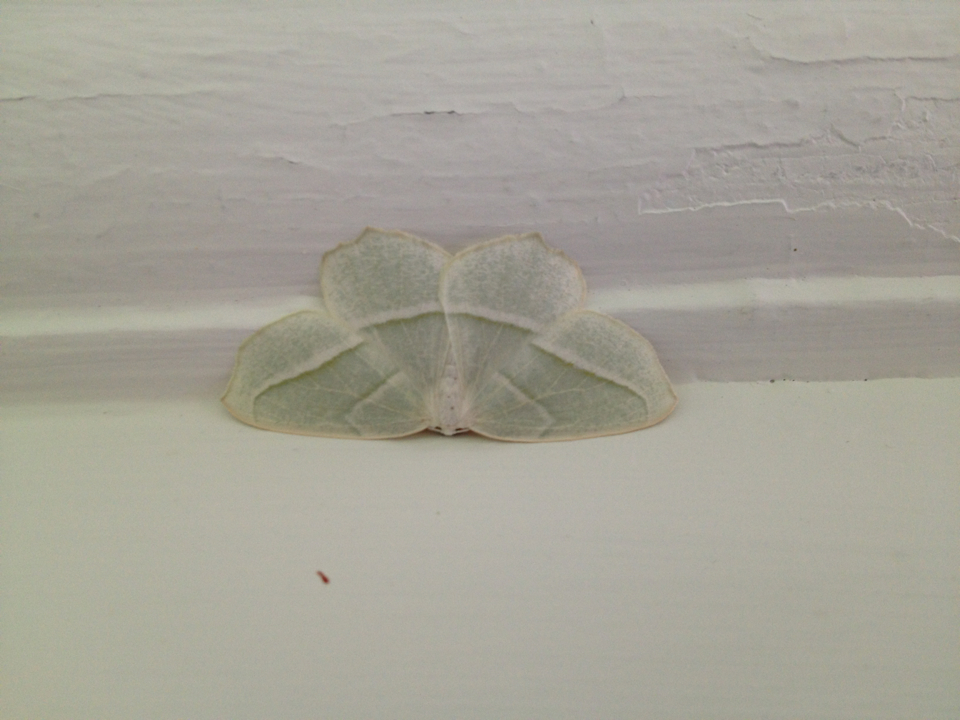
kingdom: Animalia
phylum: Arthropoda
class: Insecta
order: Lepidoptera
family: Geometridae
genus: Campaea
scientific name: Campaea perlata
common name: Fringed looper
